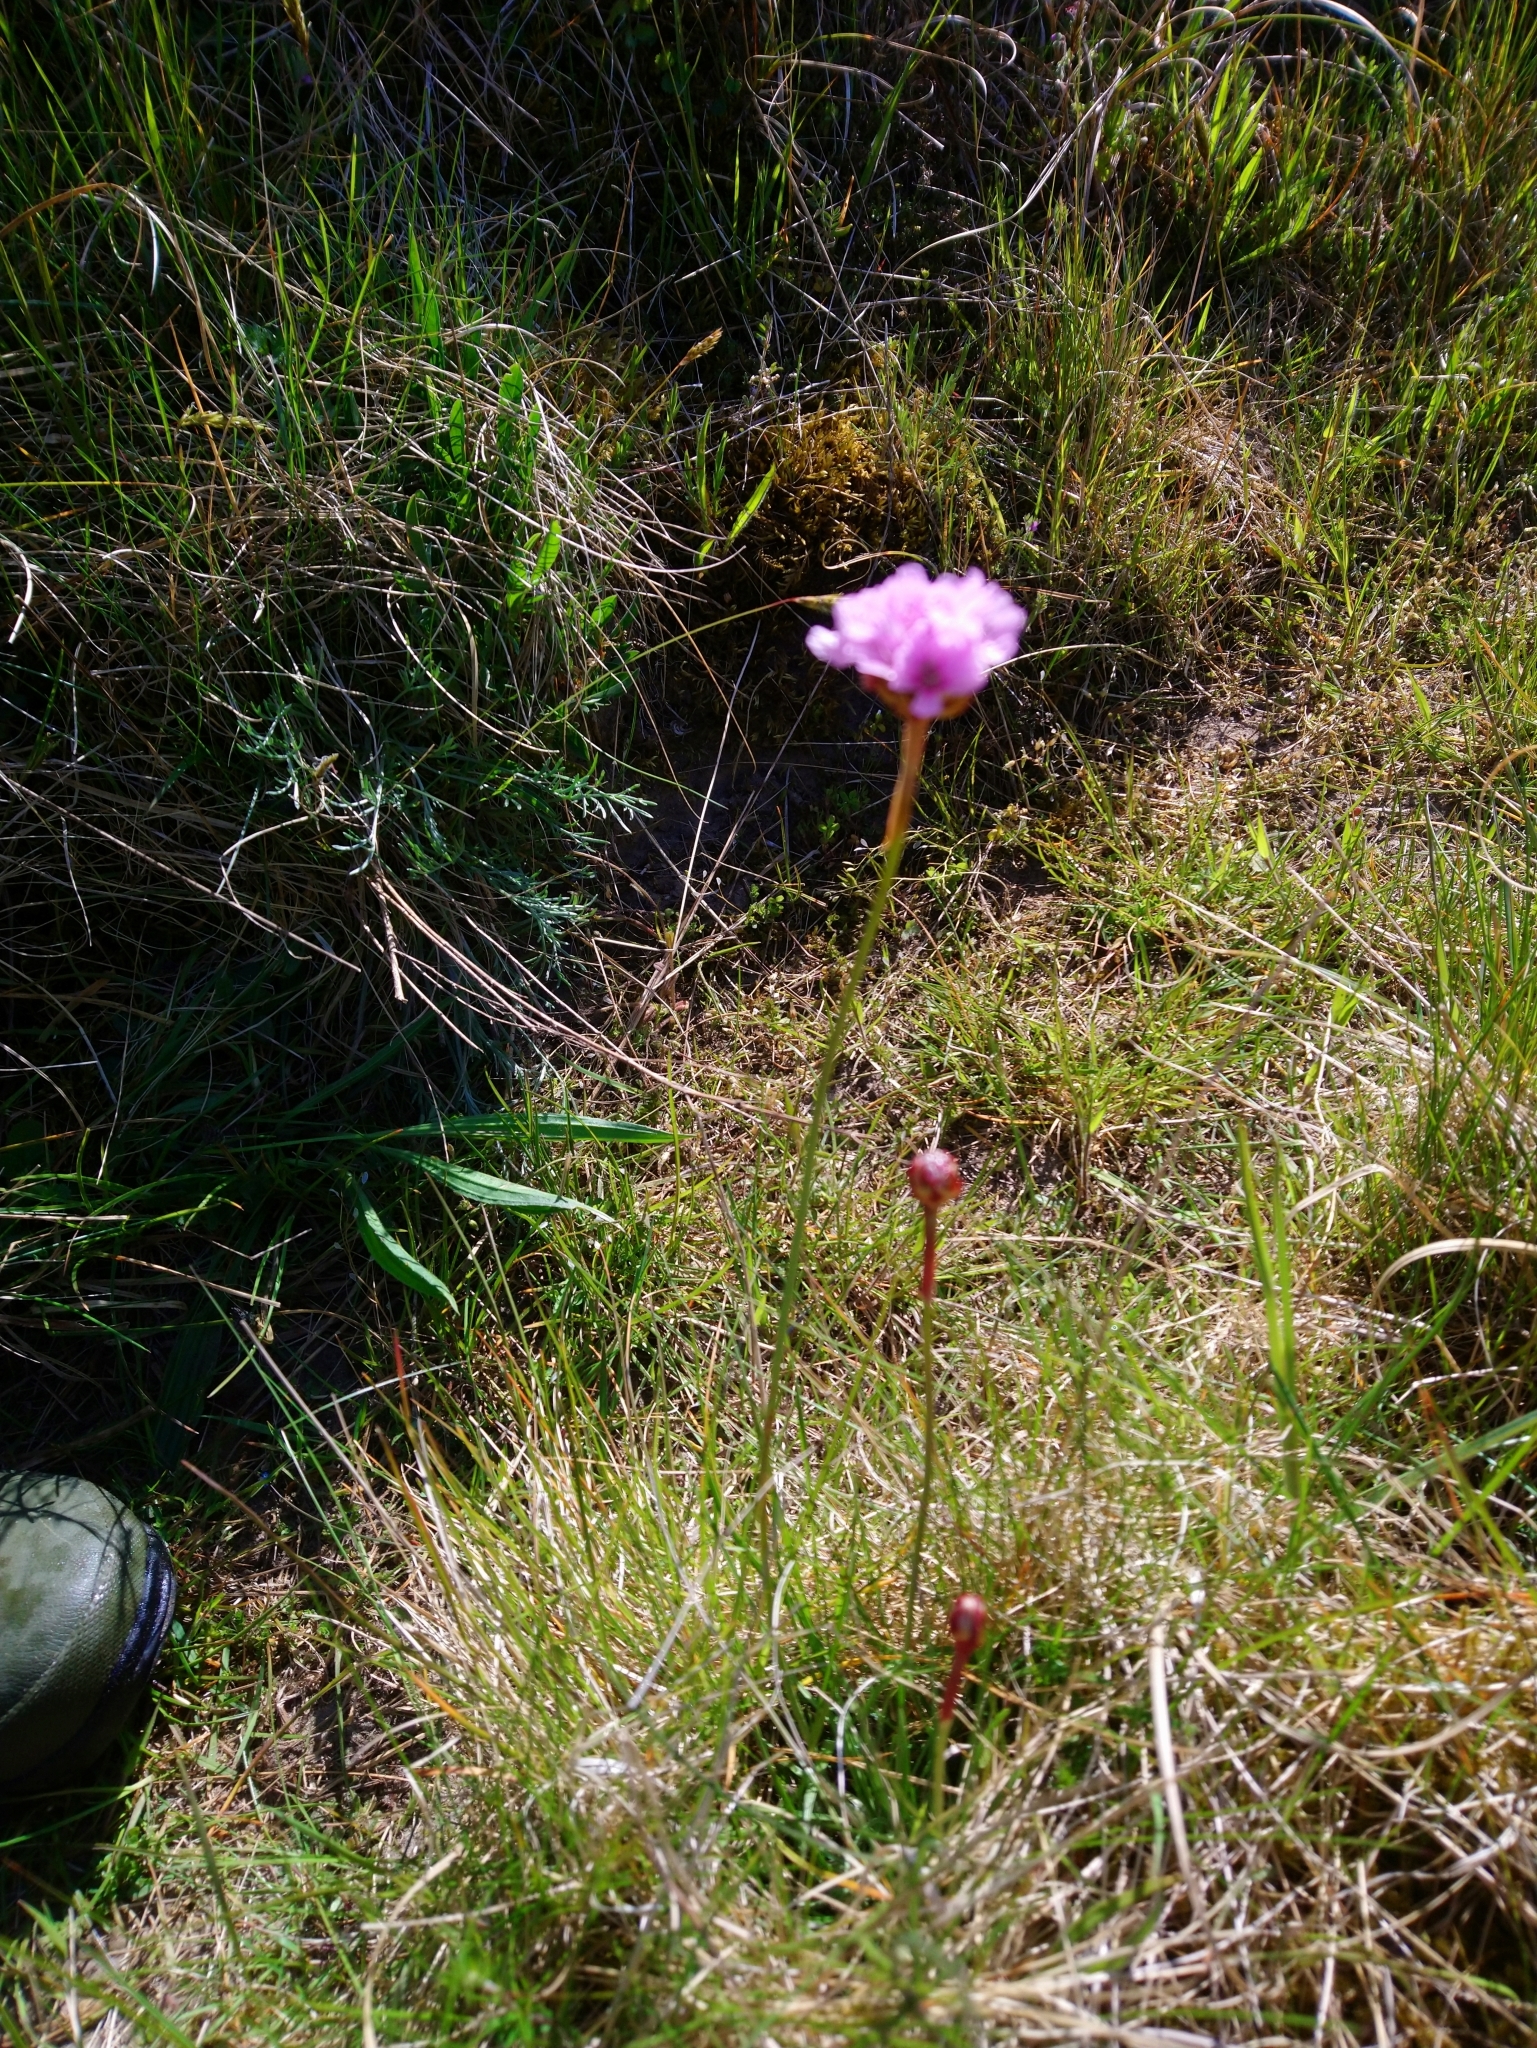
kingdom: Plantae
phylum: Tracheophyta
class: Magnoliopsida
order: Caryophyllales
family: Plumbaginaceae
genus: Armeria
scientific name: Armeria maritima
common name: Thrift
